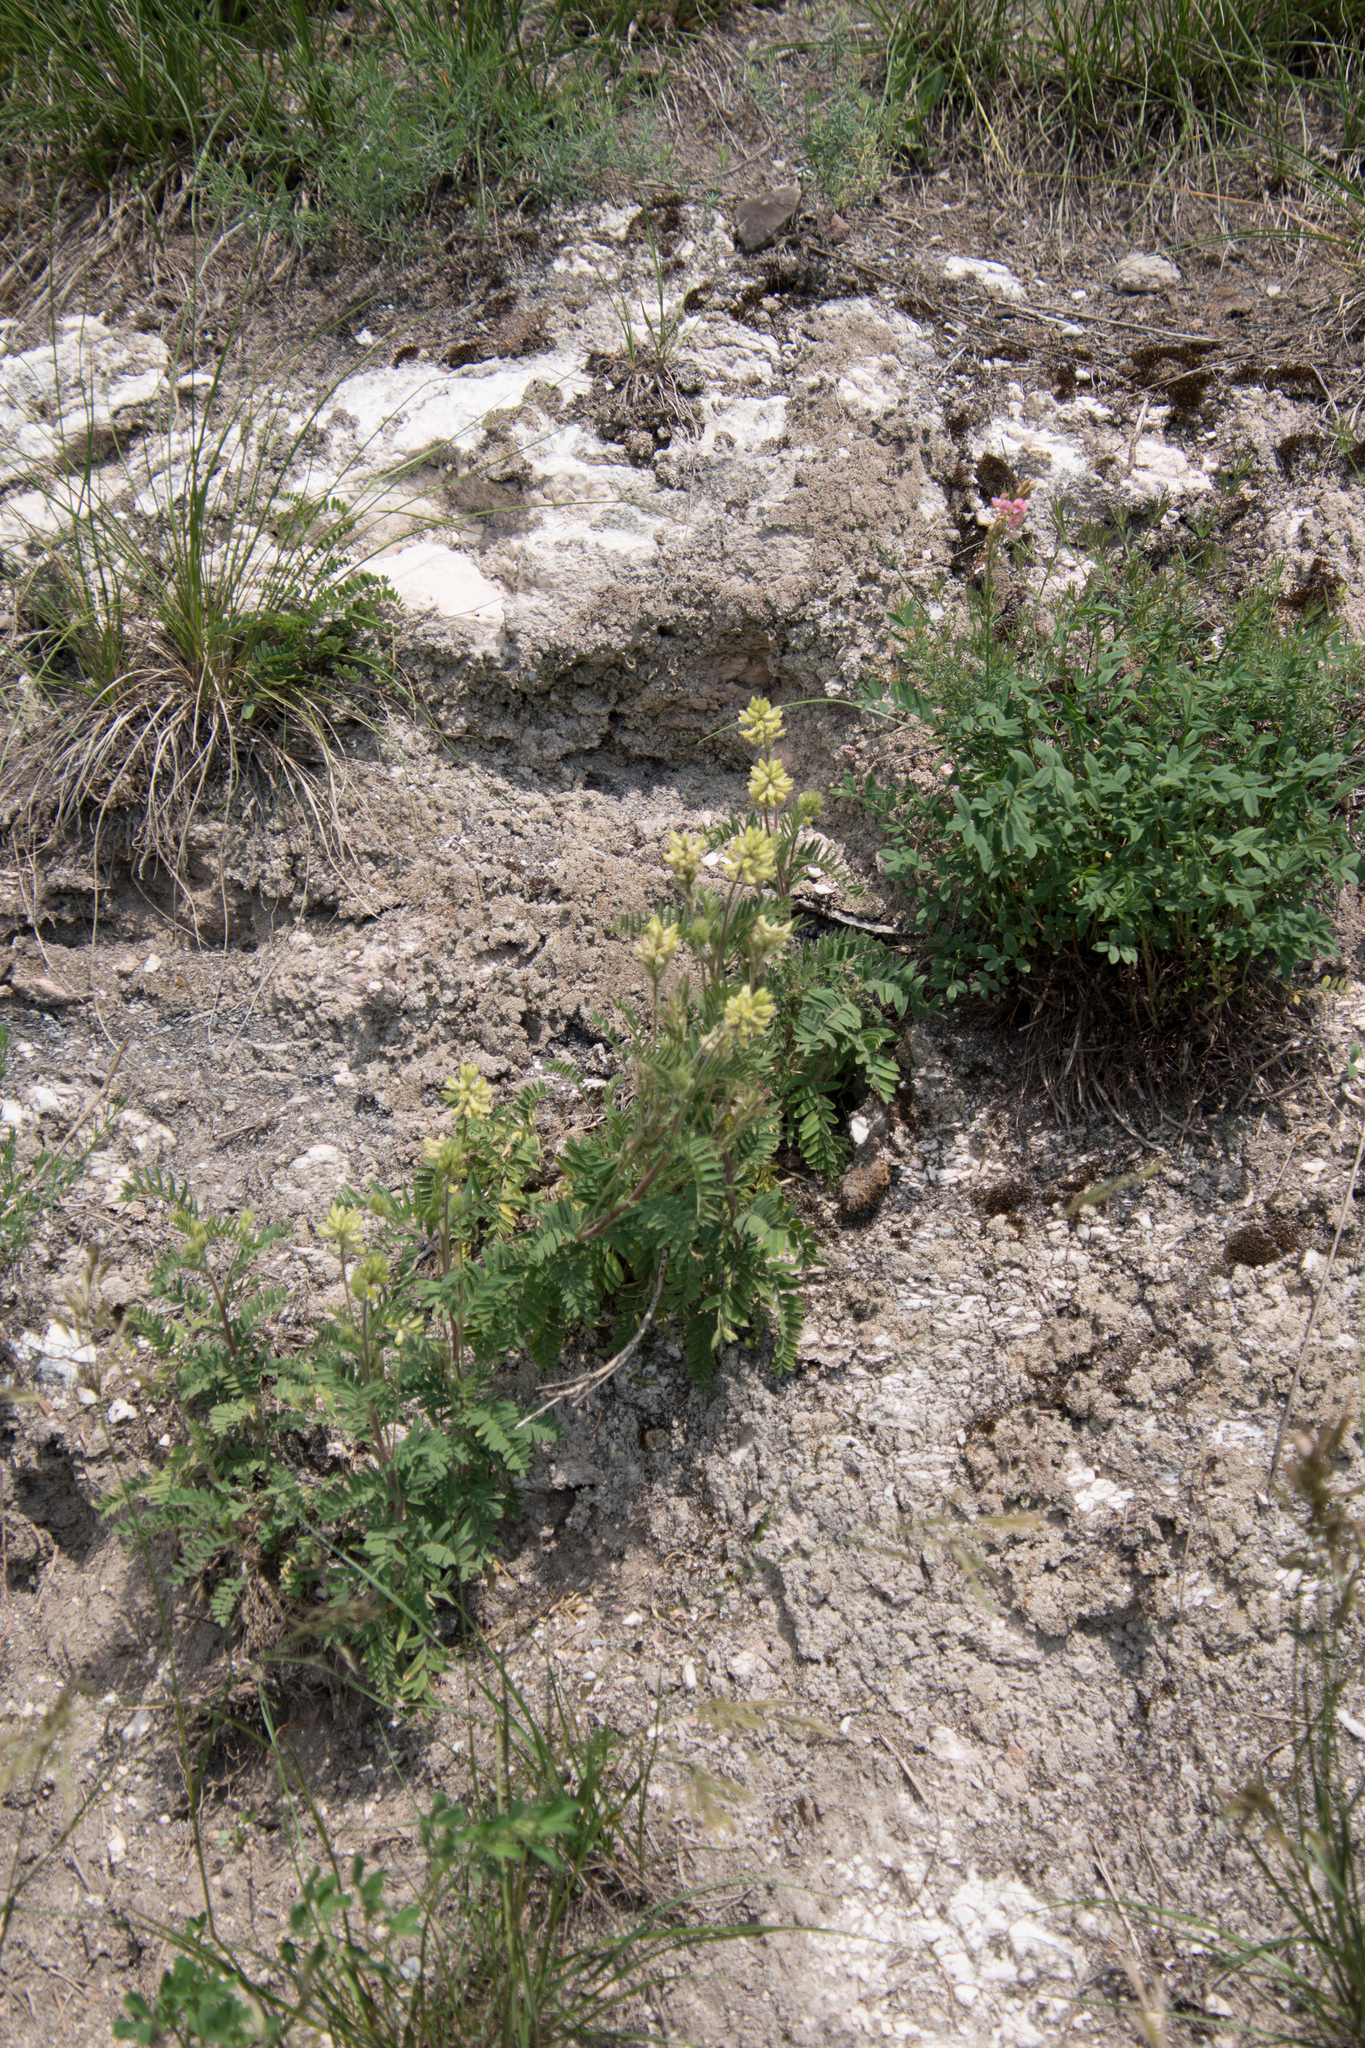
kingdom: Plantae
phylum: Tracheophyta
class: Magnoliopsida
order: Fabales
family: Fabaceae
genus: Oxytropis
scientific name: Oxytropis pilosa
